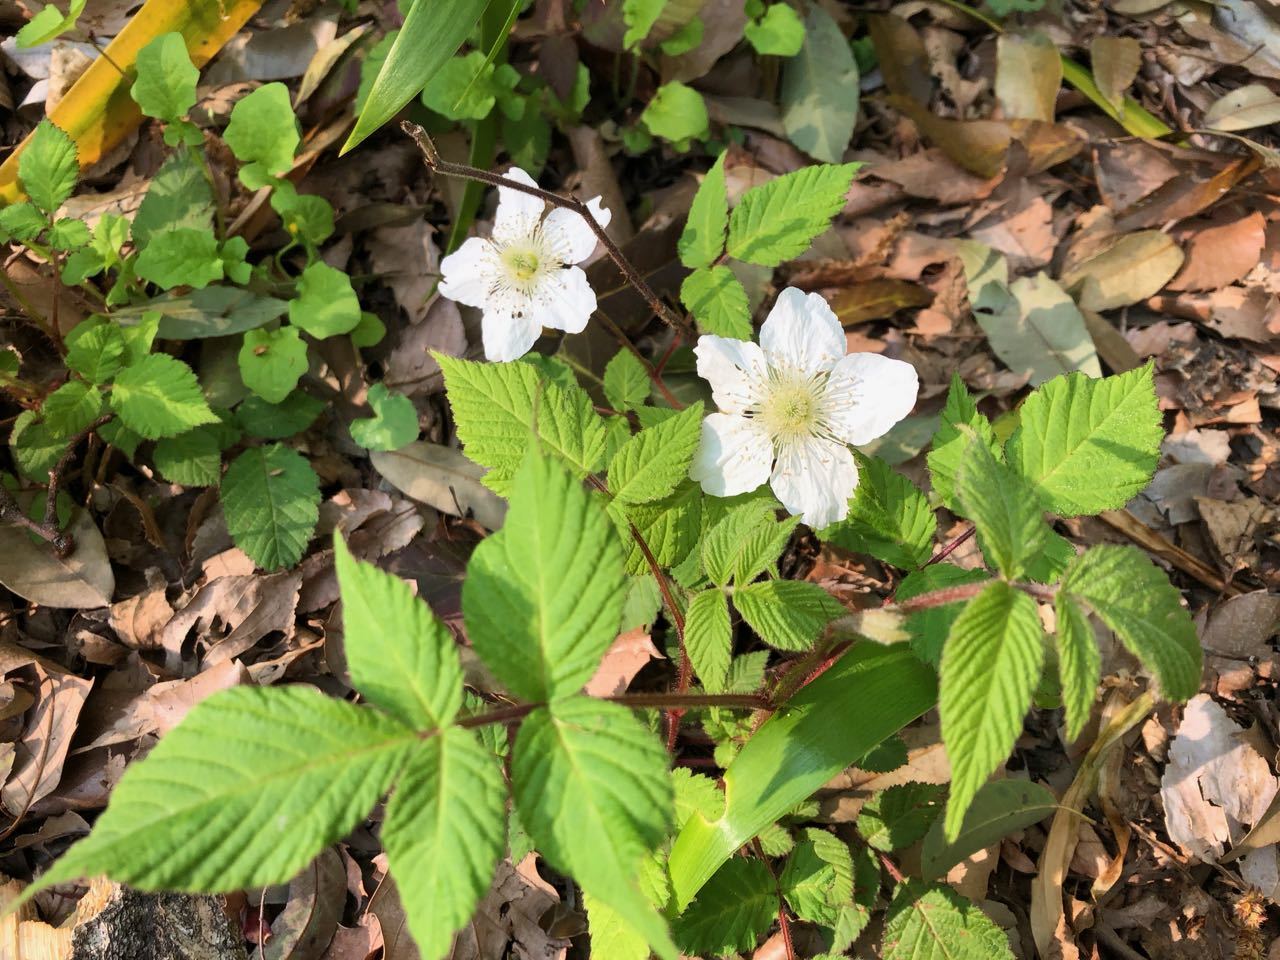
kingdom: Plantae
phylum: Tracheophyta
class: Magnoliopsida
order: Rosales
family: Rosaceae
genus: Rubus
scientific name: Rubus hirsutus
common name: Hirsute raspberry
